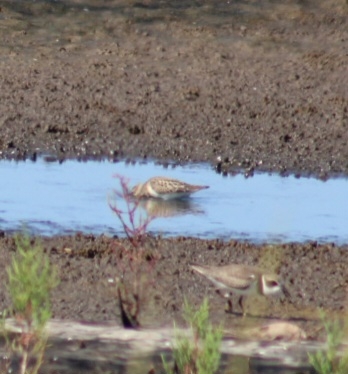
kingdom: Animalia
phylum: Chordata
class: Aves
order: Charadriiformes
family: Scolopacidae
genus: Calidris
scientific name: Calidris mauri
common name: Western sandpiper
